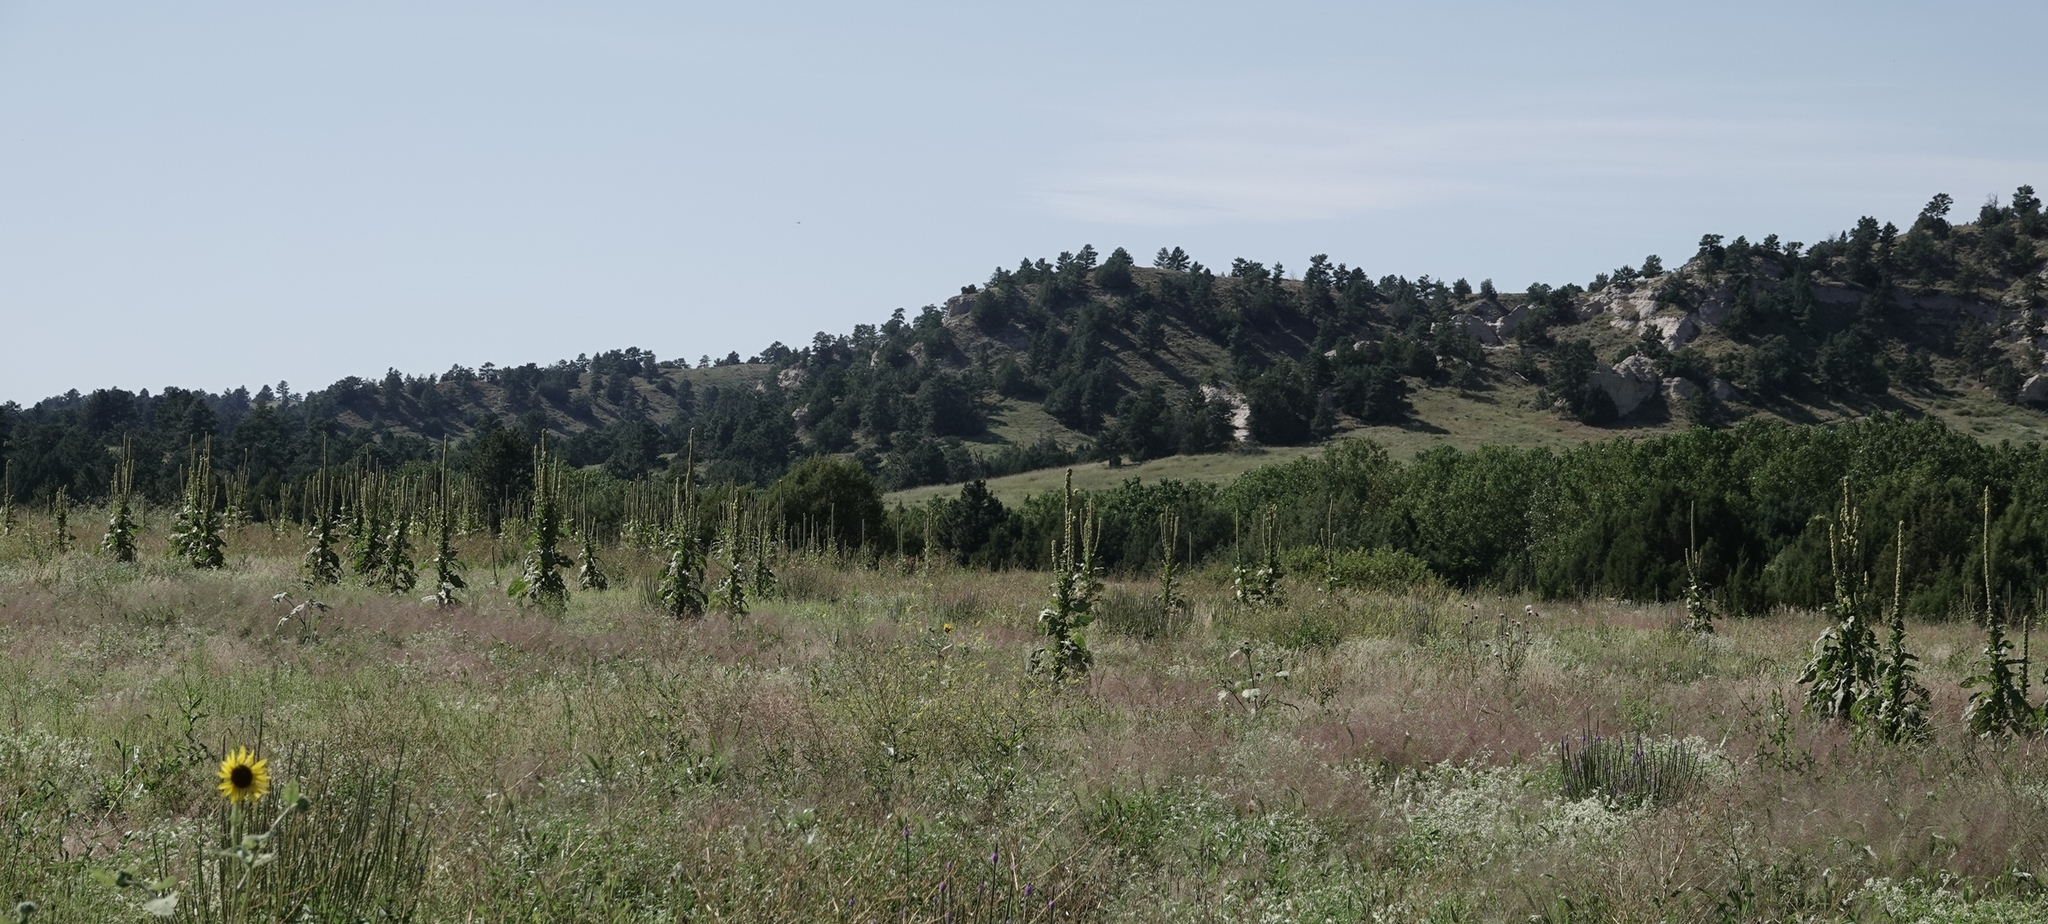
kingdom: Plantae
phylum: Tracheophyta
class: Magnoliopsida
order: Lamiales
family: Scrophulariaceae
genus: Verbascum
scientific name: Verbascum thapsus
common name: Common mullein
